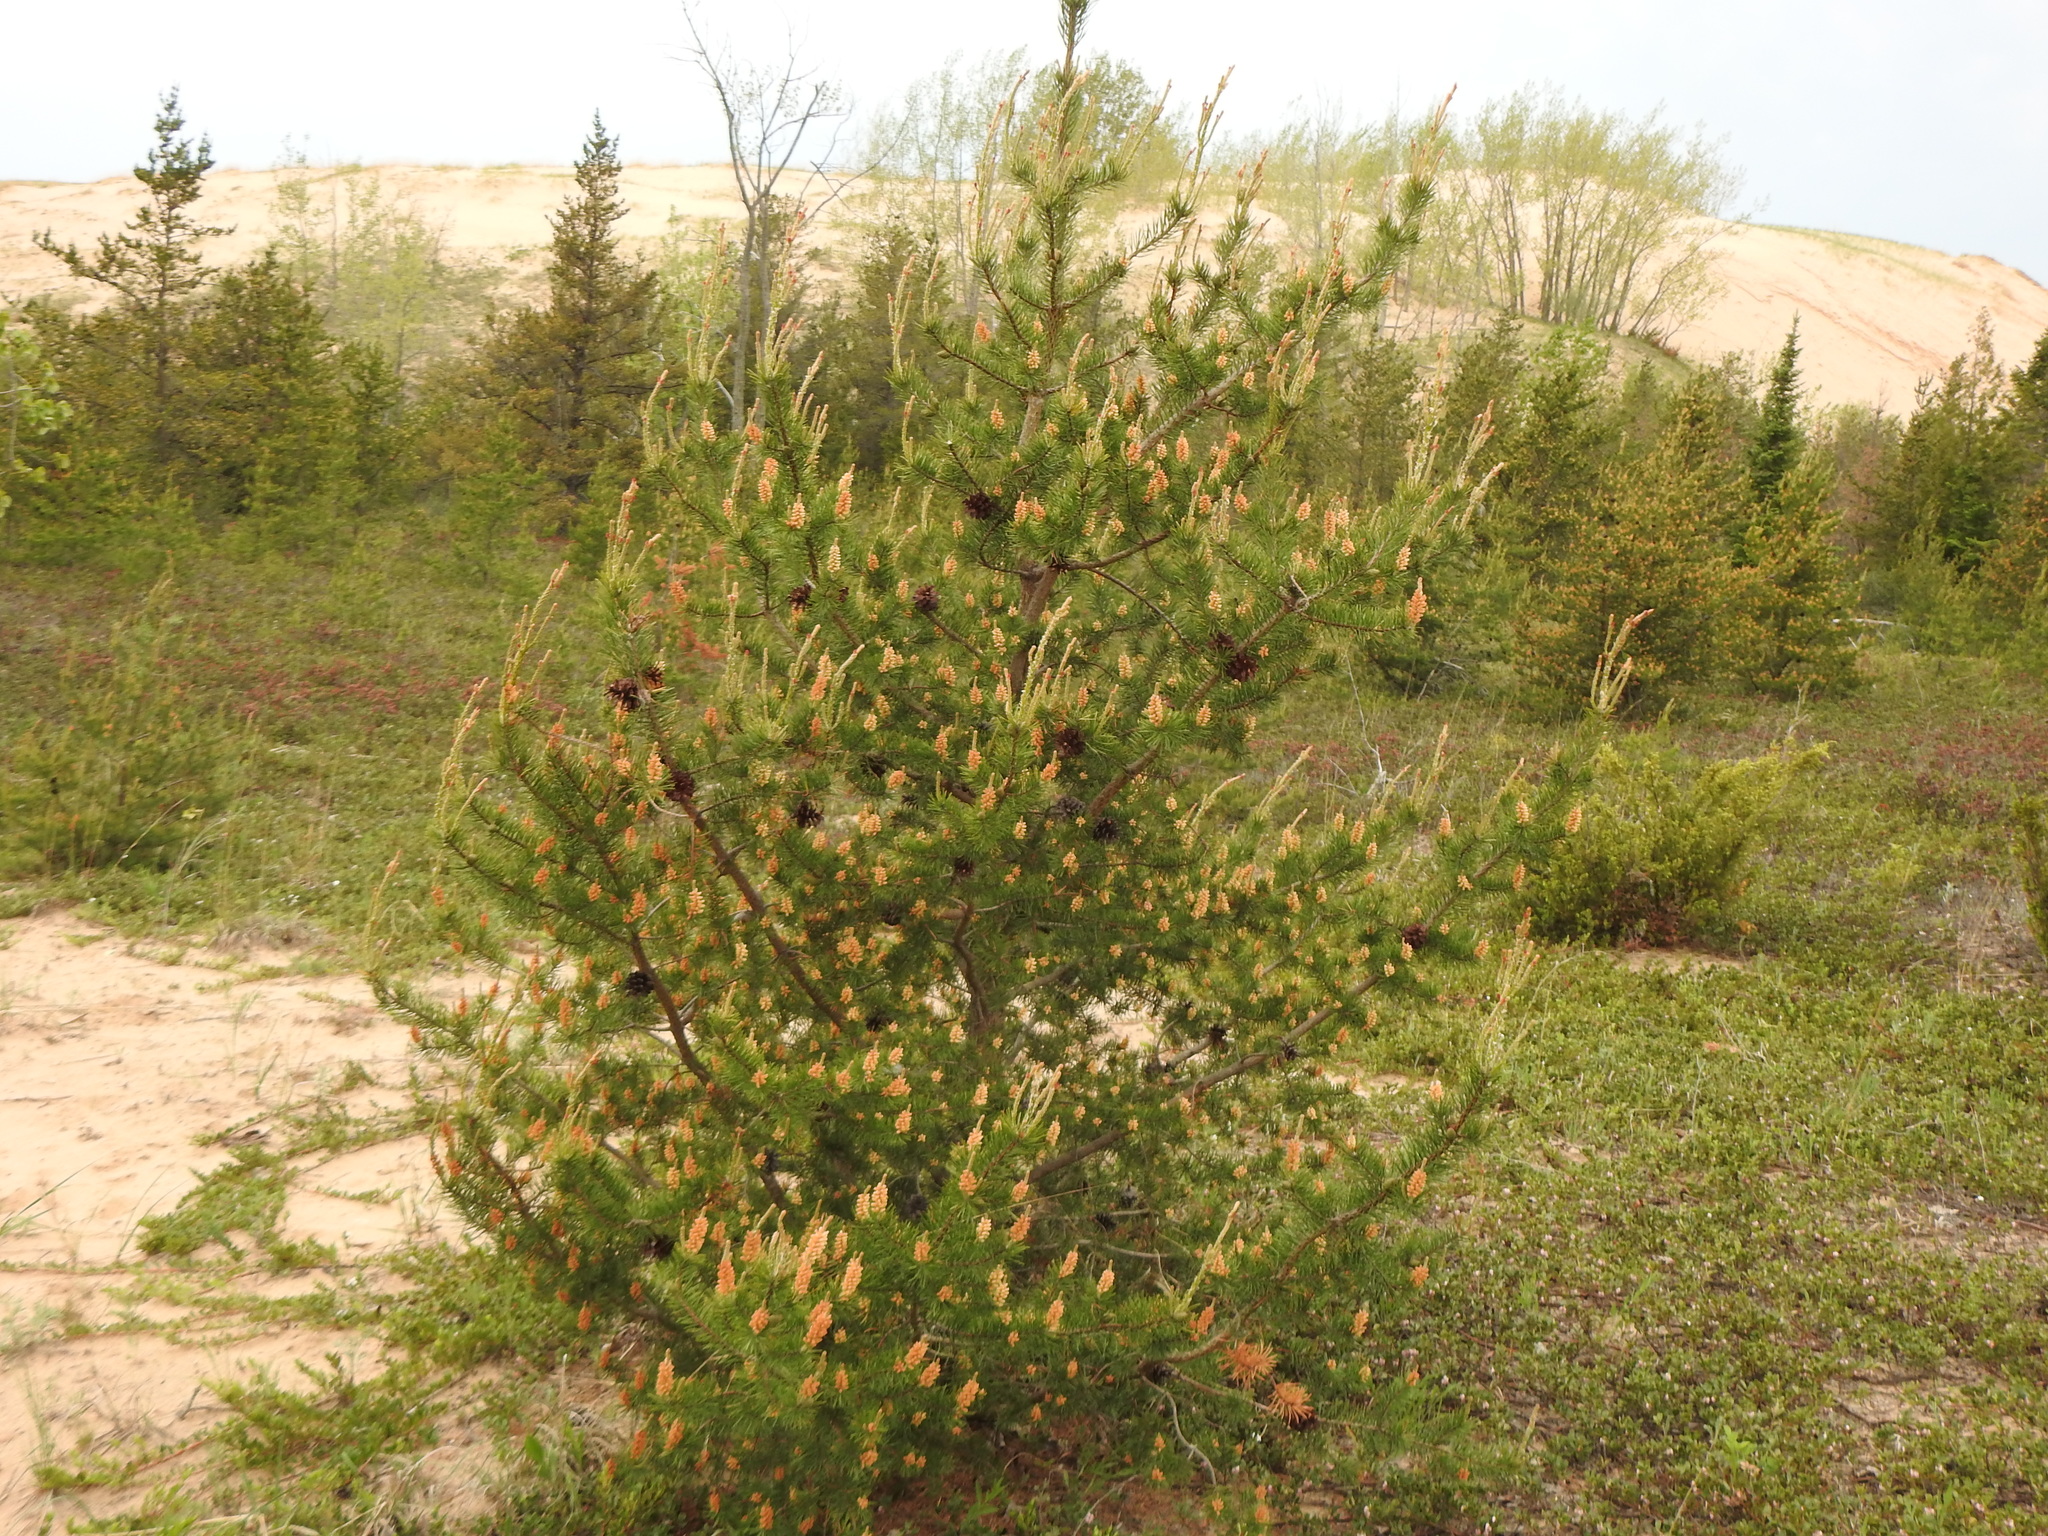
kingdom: Plantae
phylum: Tracheophyta
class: Pinopsida
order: Pinales
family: Pinaceae
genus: Pinus
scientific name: Pinus banksiana
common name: Jack pine
